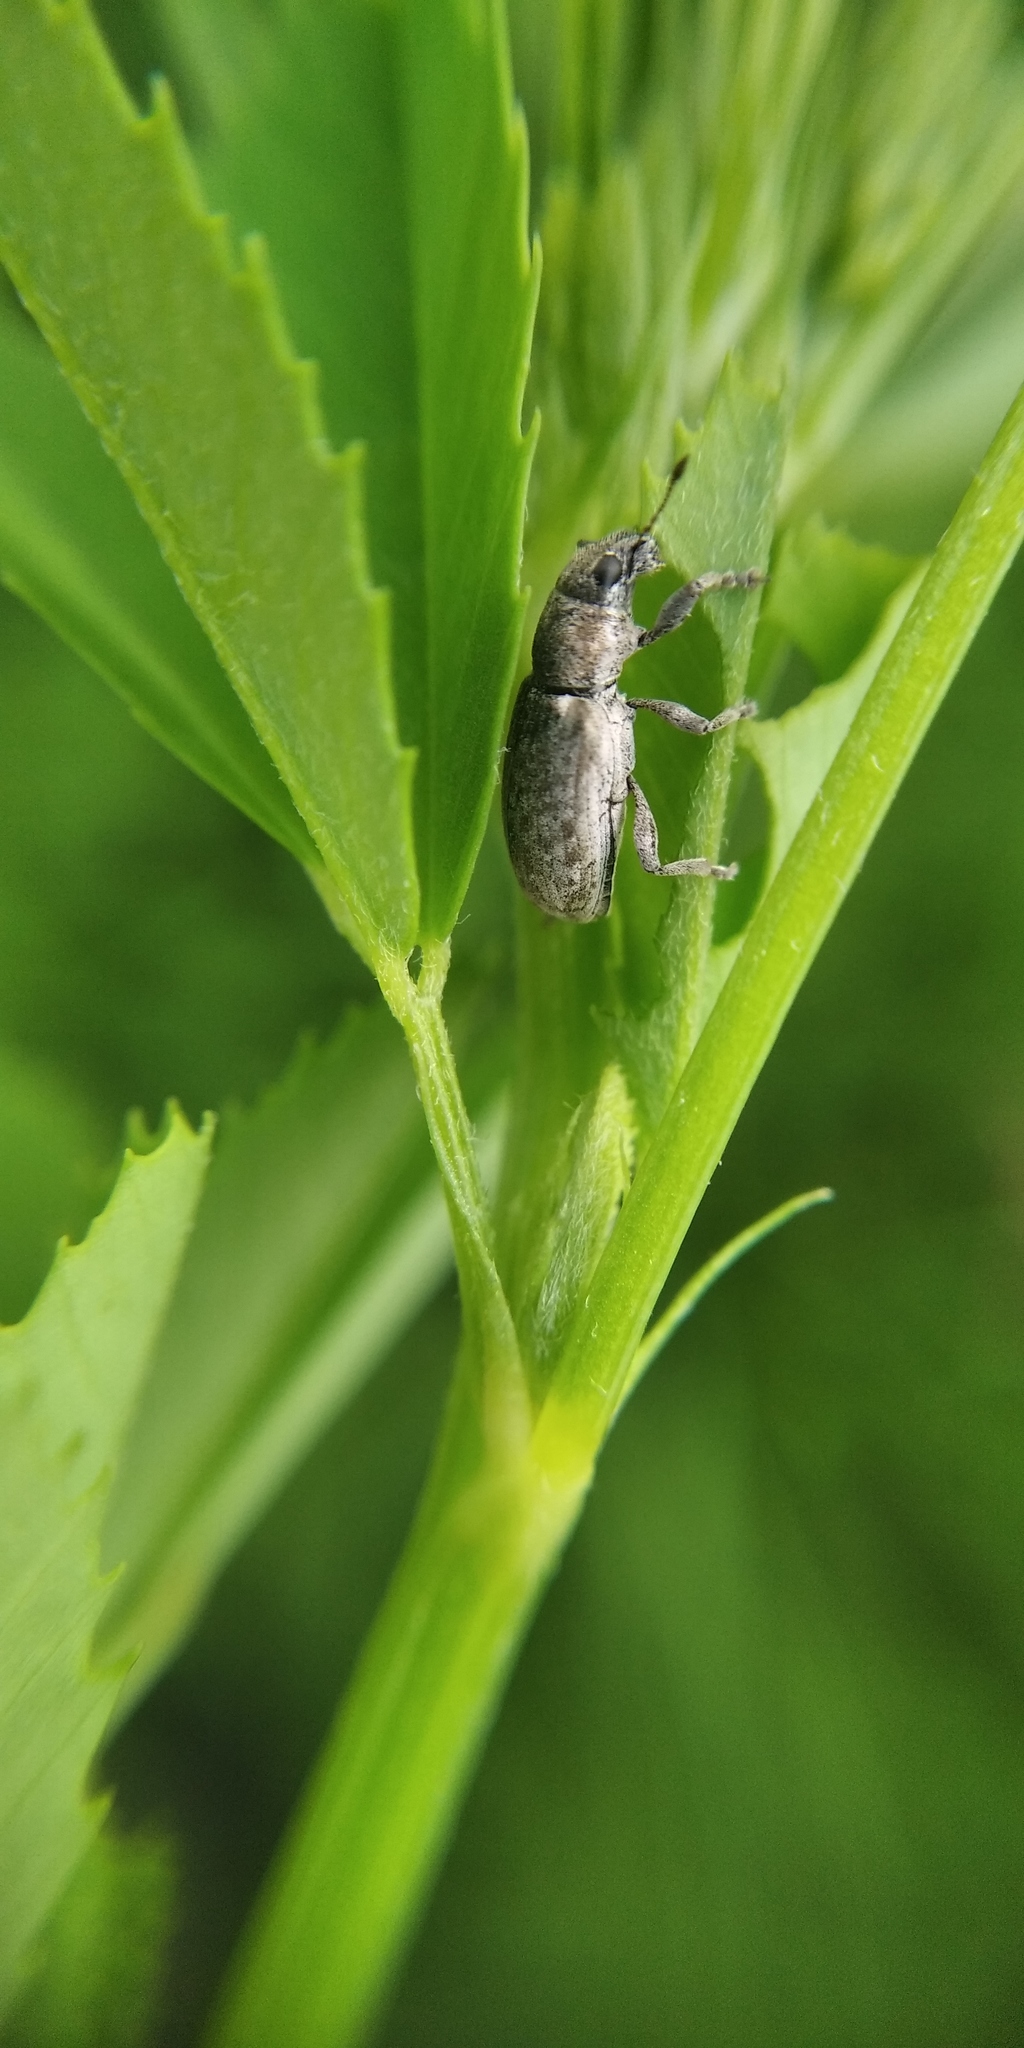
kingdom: Animalia
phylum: Arthropoda
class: Insecta
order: Coleoptera
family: Curculionidae
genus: Sitona
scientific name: Sitona cylindricollis
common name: Weevil
